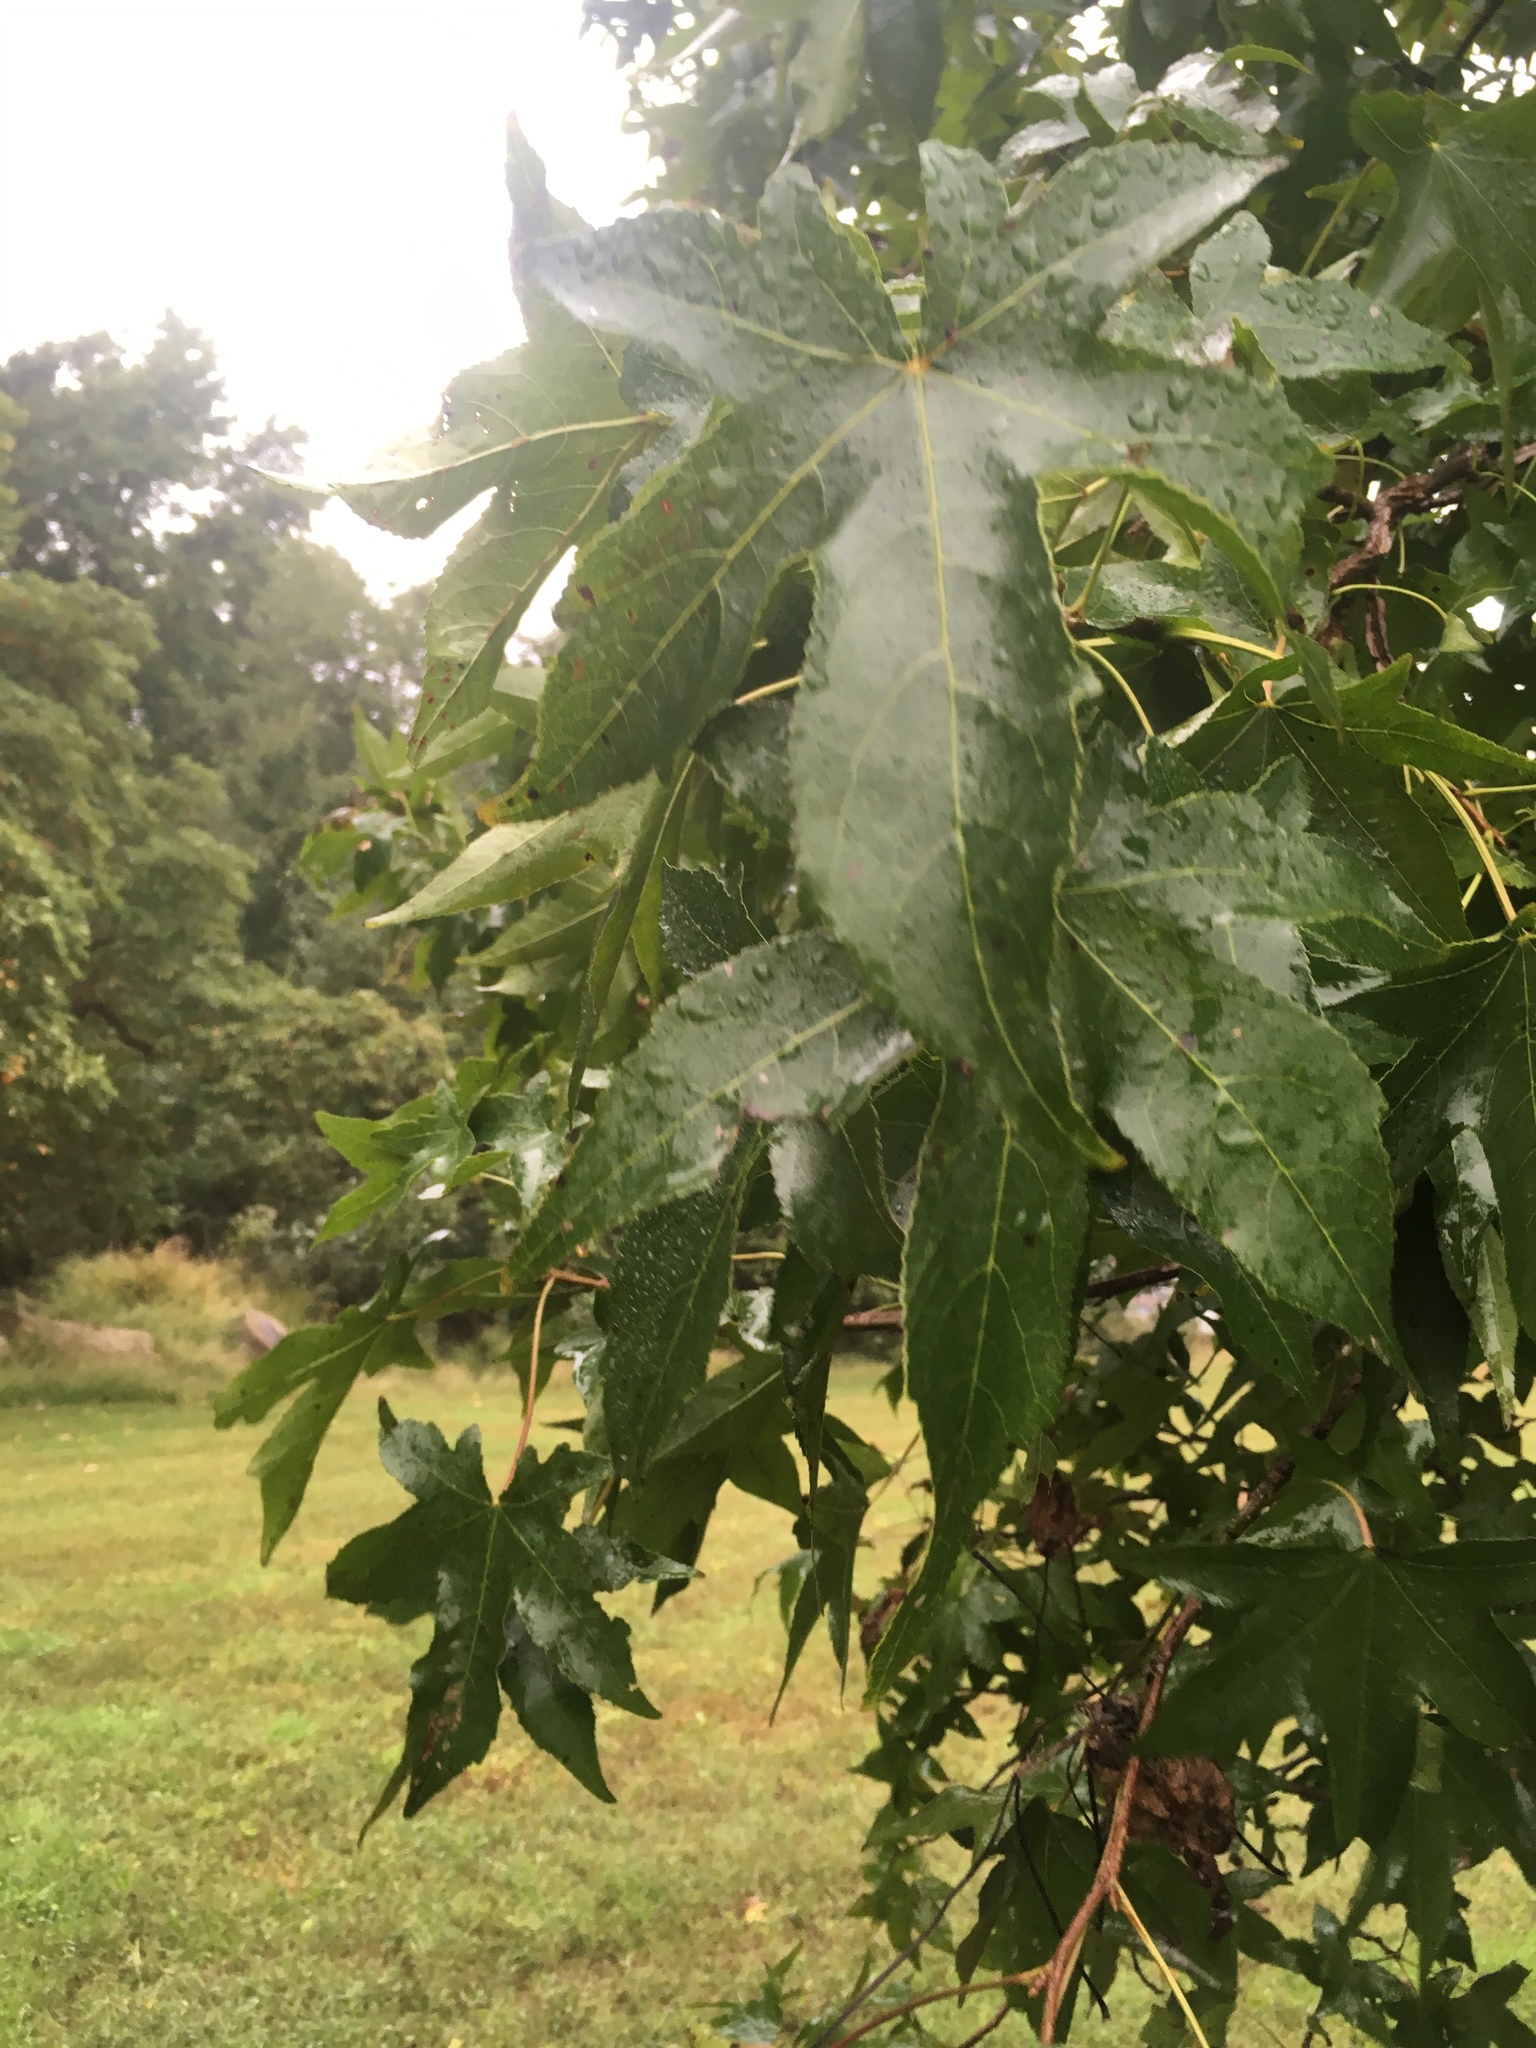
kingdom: Plantae
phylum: Tracheophyta
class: Magnoliopsida
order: Saxifragales
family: Altingiaceae
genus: Liquidambar
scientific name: Liquidambar styraciflua
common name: Sweet gum
